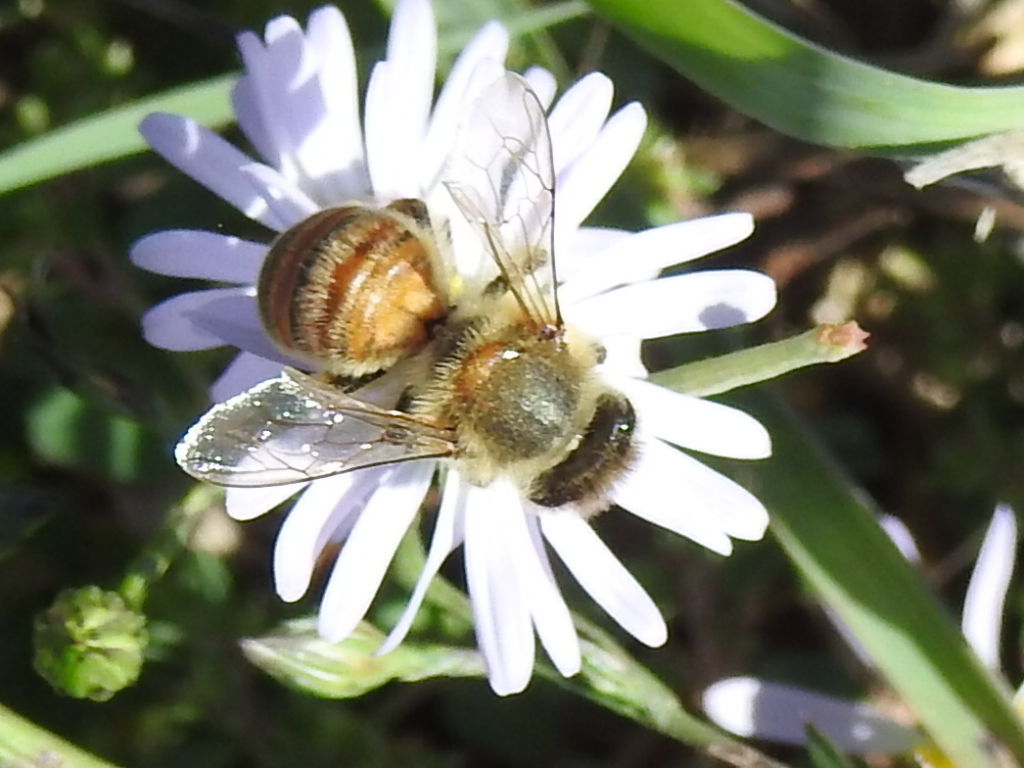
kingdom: Animalia
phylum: Arthropoda
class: Insecta
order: Hymenoptera
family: Apidae
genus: Apis
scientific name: Apis mellifera
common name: Honey bee
